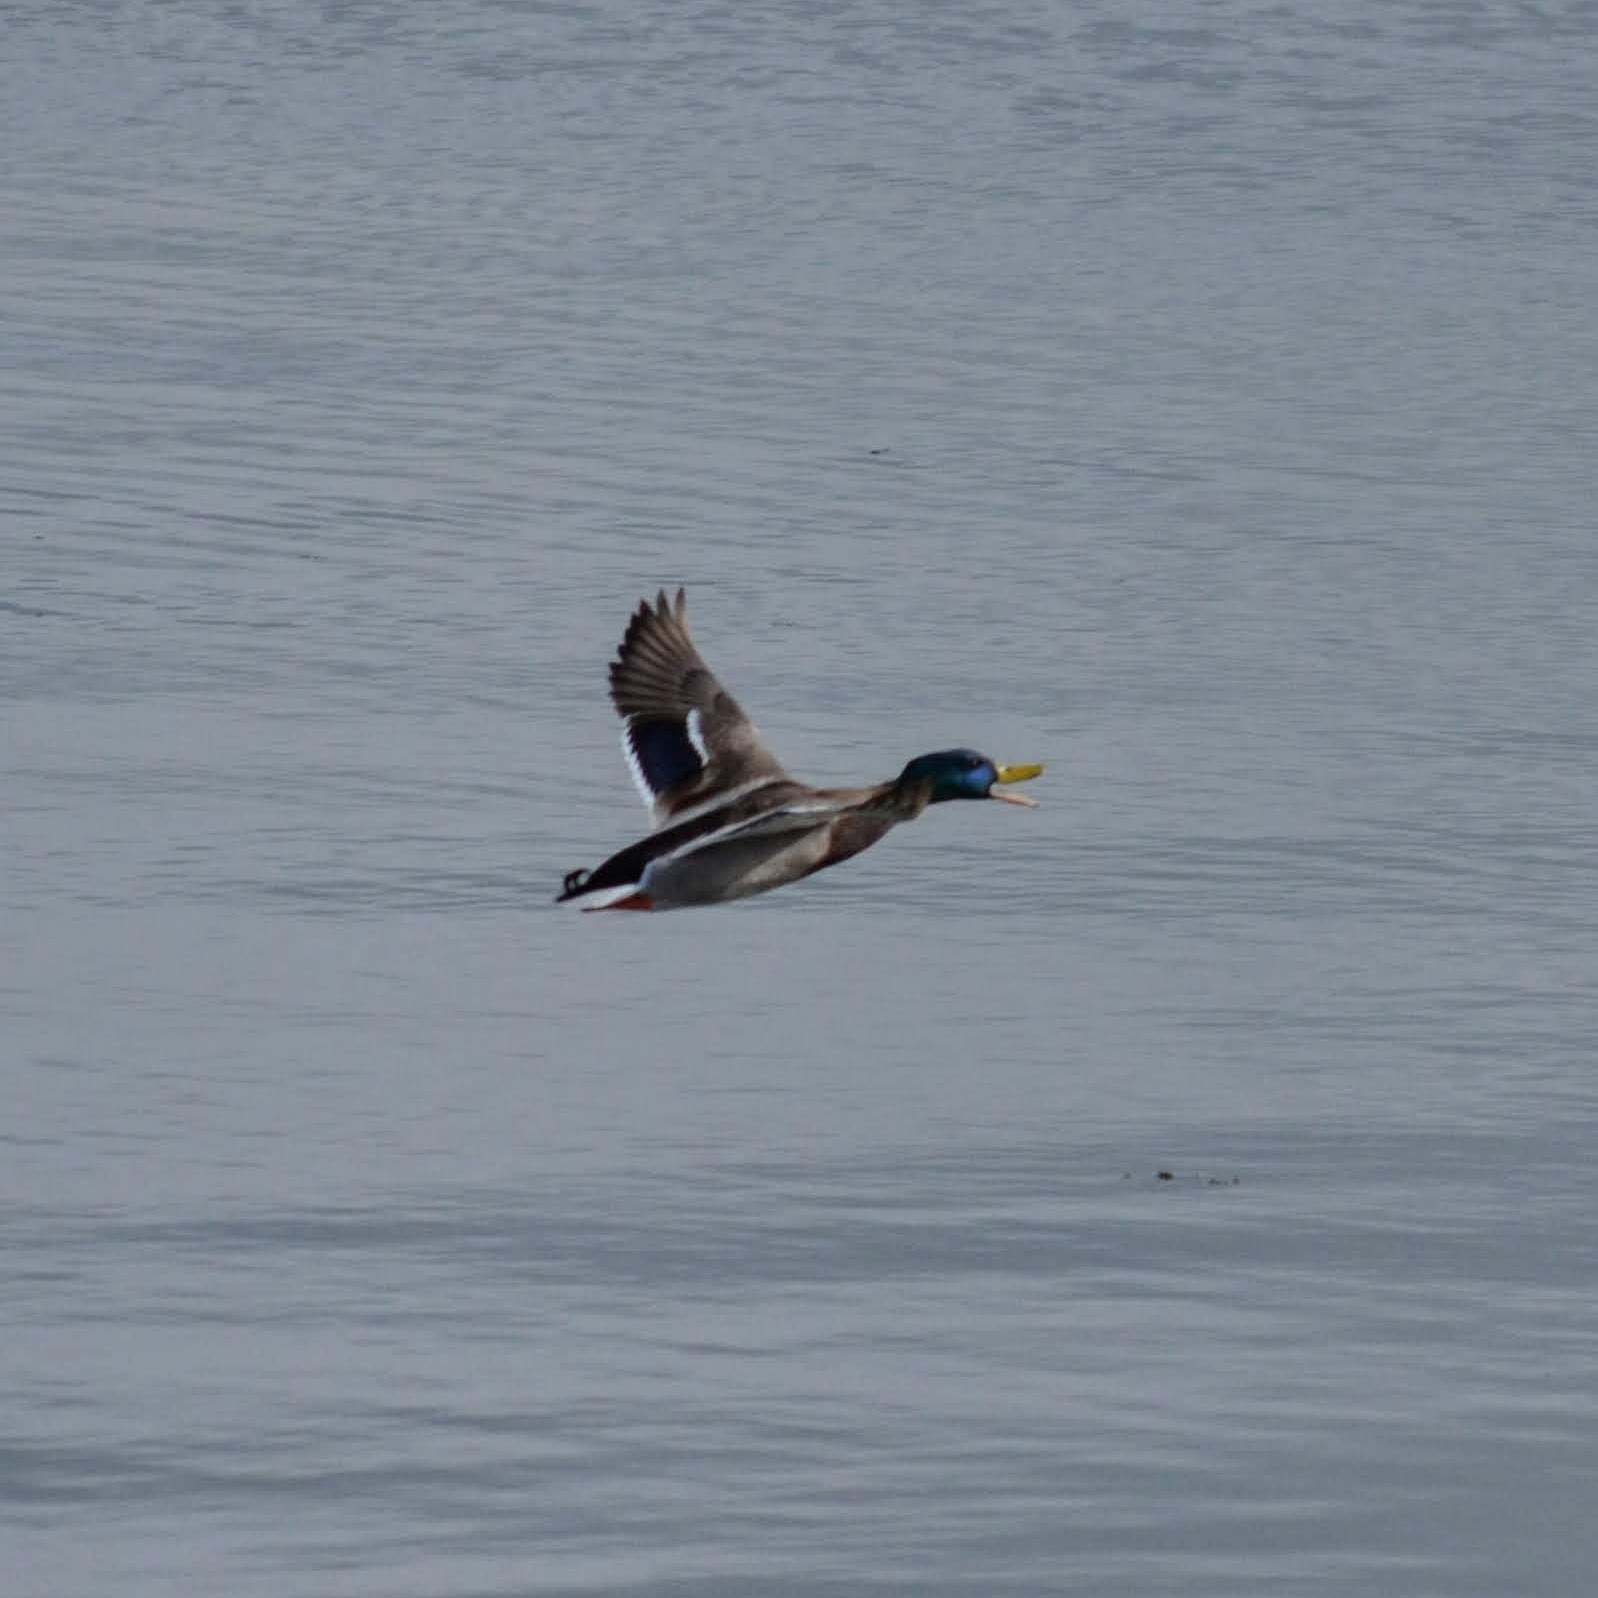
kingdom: Animalia
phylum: Chordata
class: Aves
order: Anseriformes
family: Anatidae
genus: Anas
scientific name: Anas platyrhynchos
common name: Mallard
